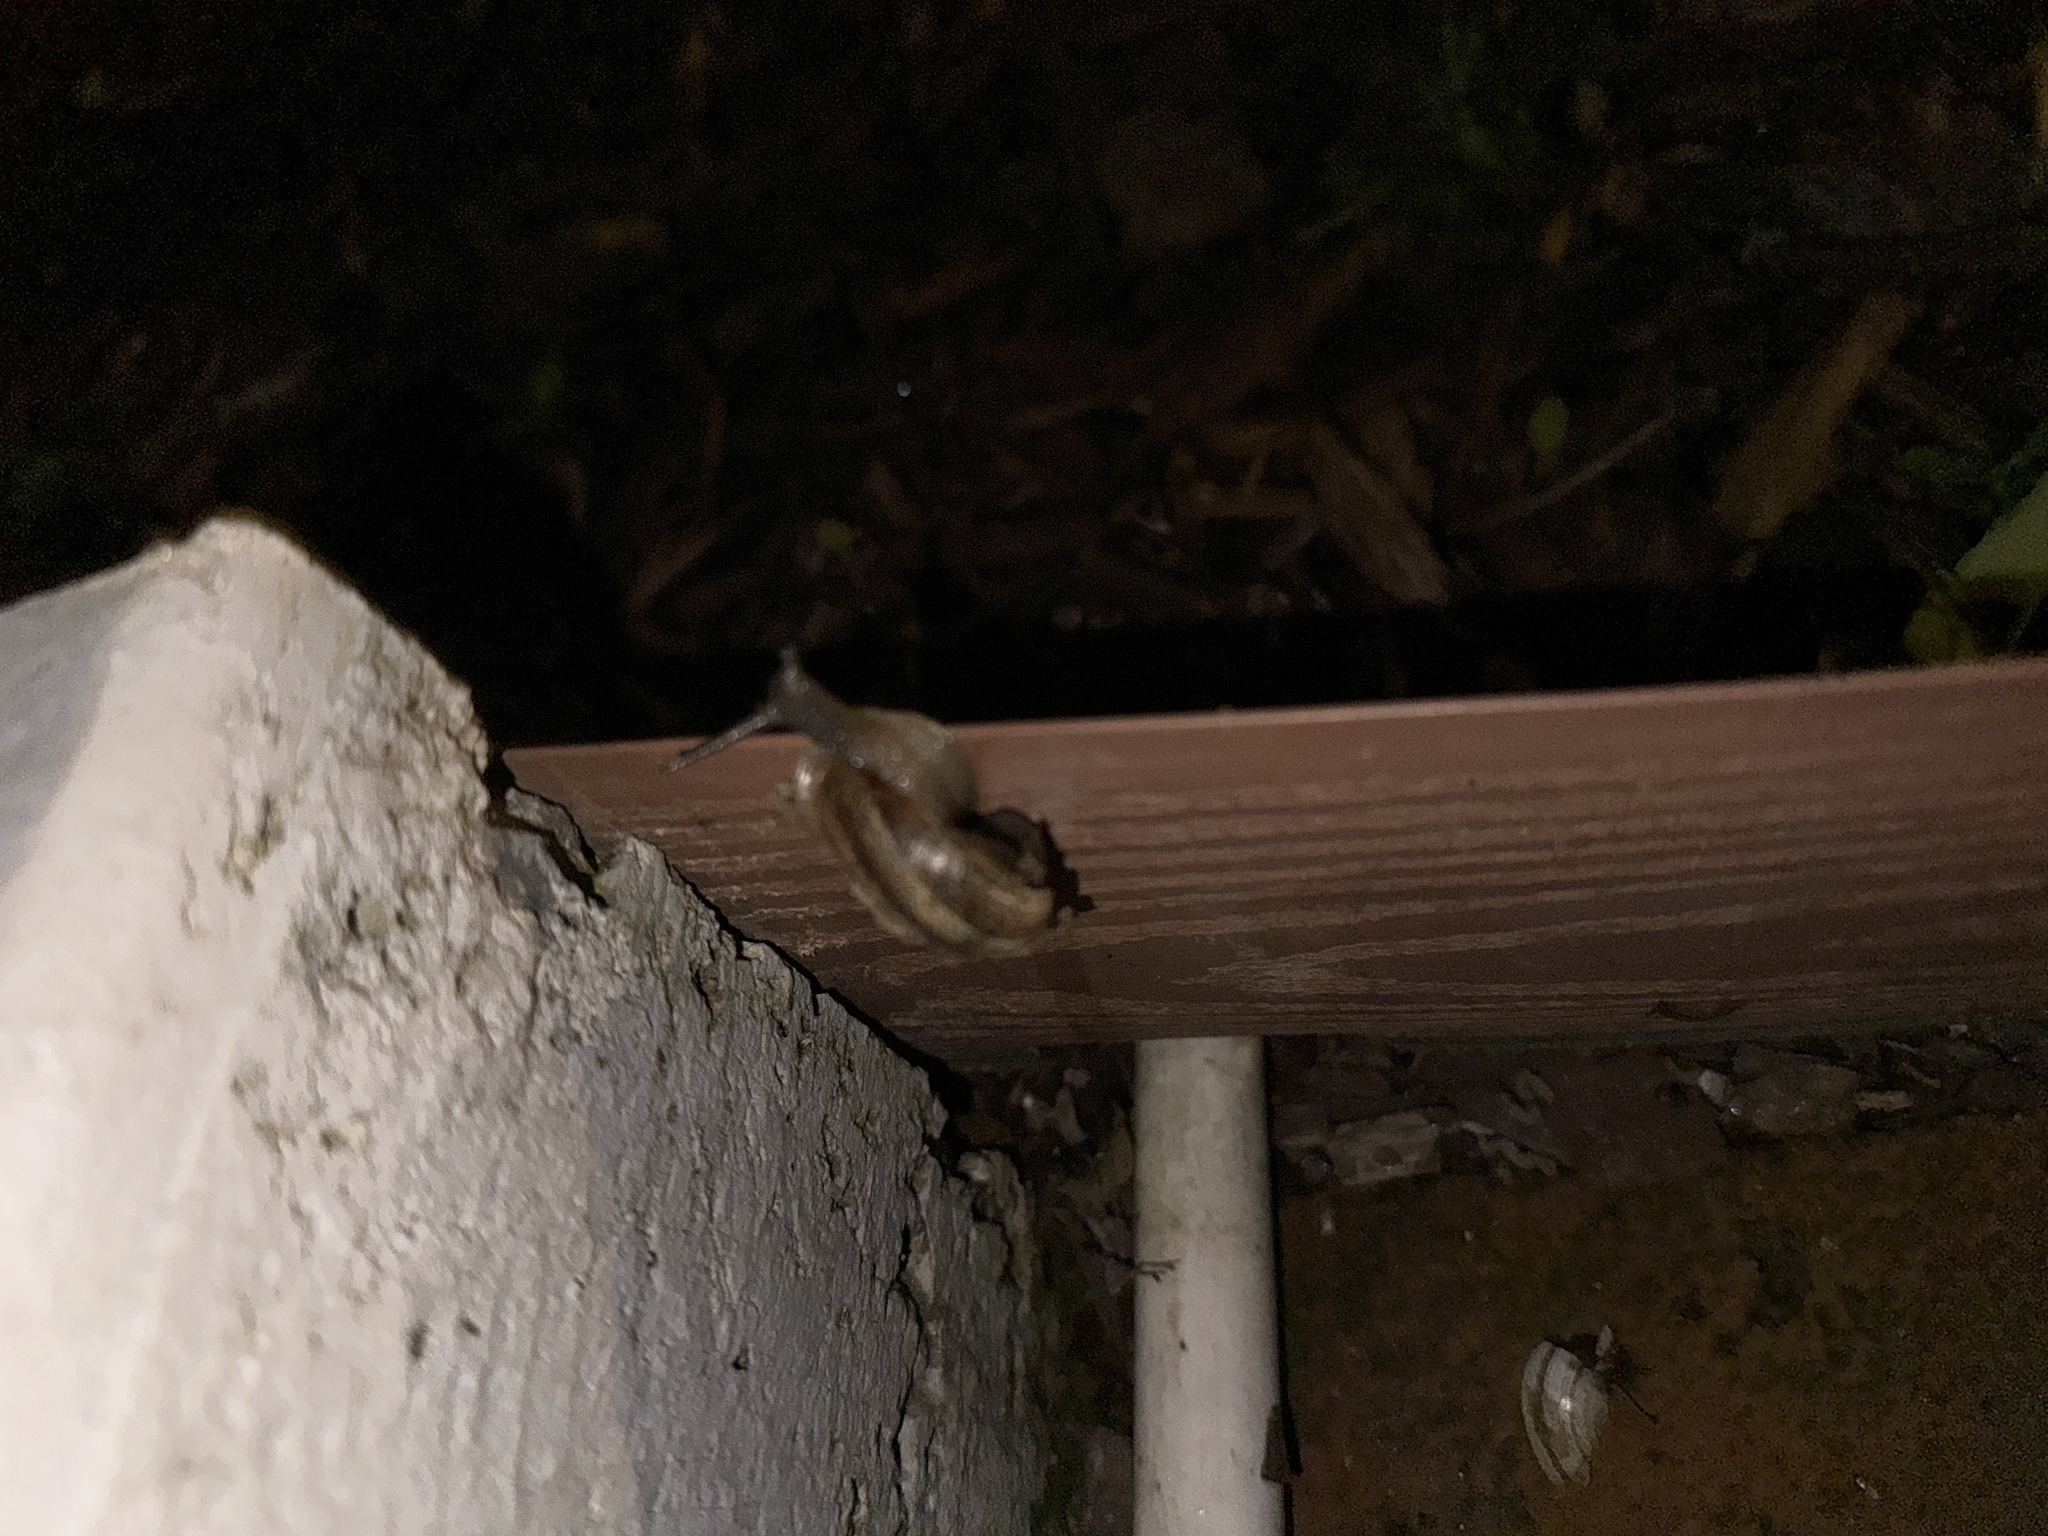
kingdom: Animalia
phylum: Mollusca
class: Gastropoda
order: Stylommatophora
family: Helicidae
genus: Otala
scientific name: Otala lactea
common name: Milk snail
